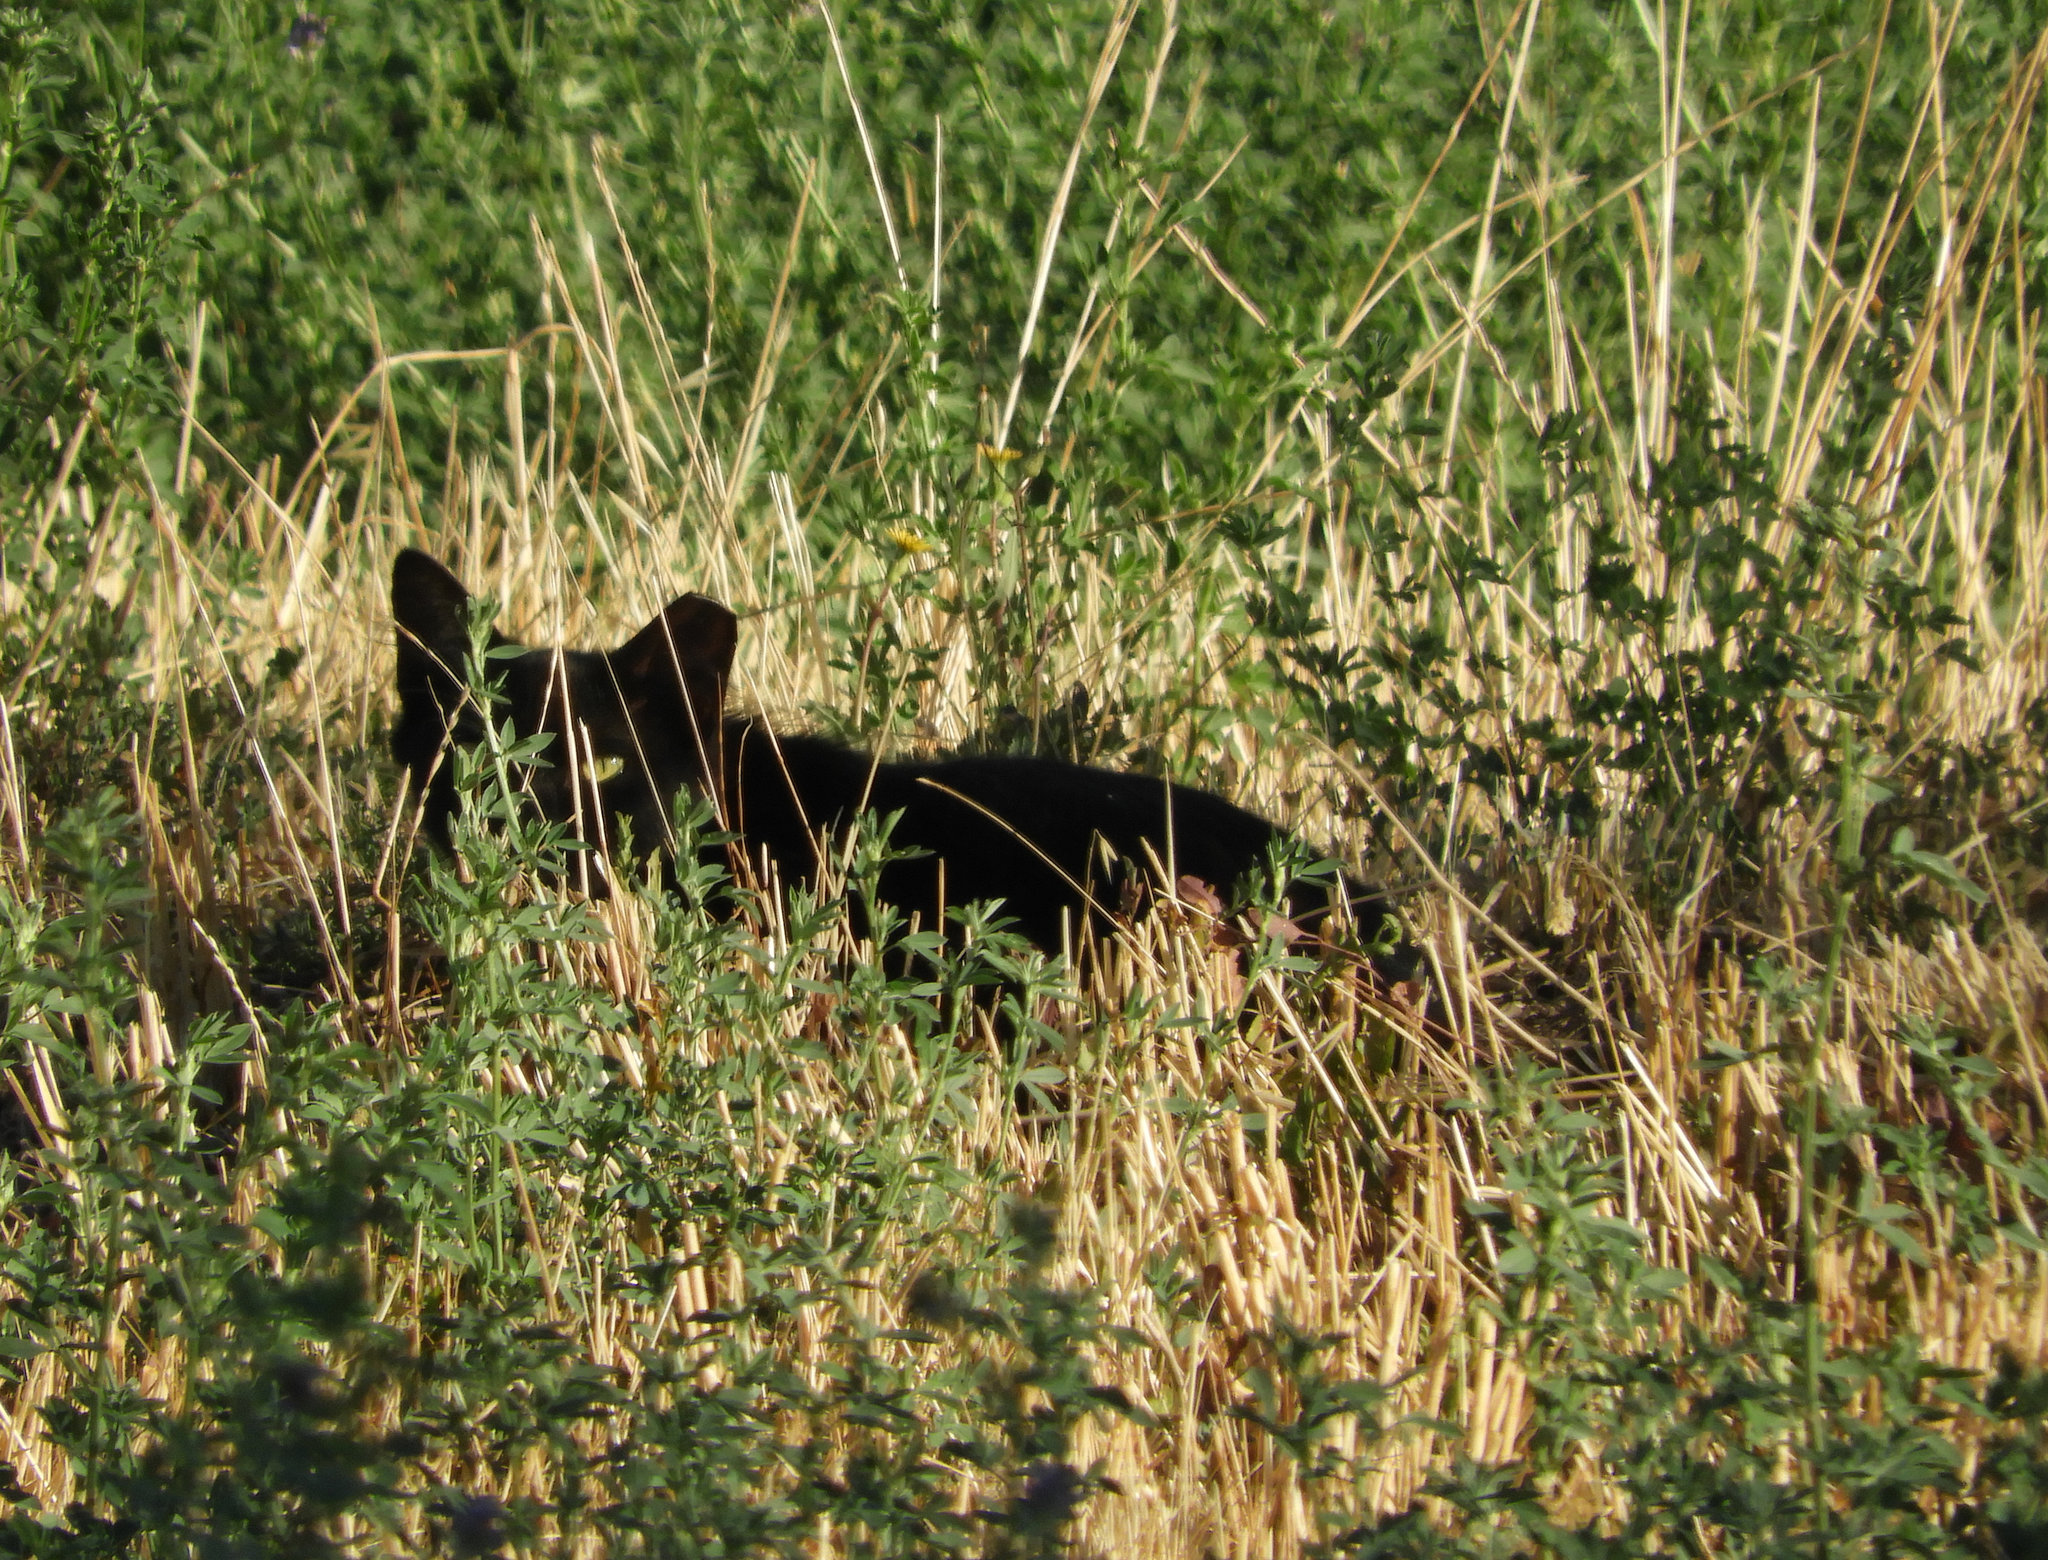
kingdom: Animalia
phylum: Chordata
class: Mammalia
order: Carnivora
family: Felidae
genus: Felis
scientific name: Felis catus
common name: Domestic cat
